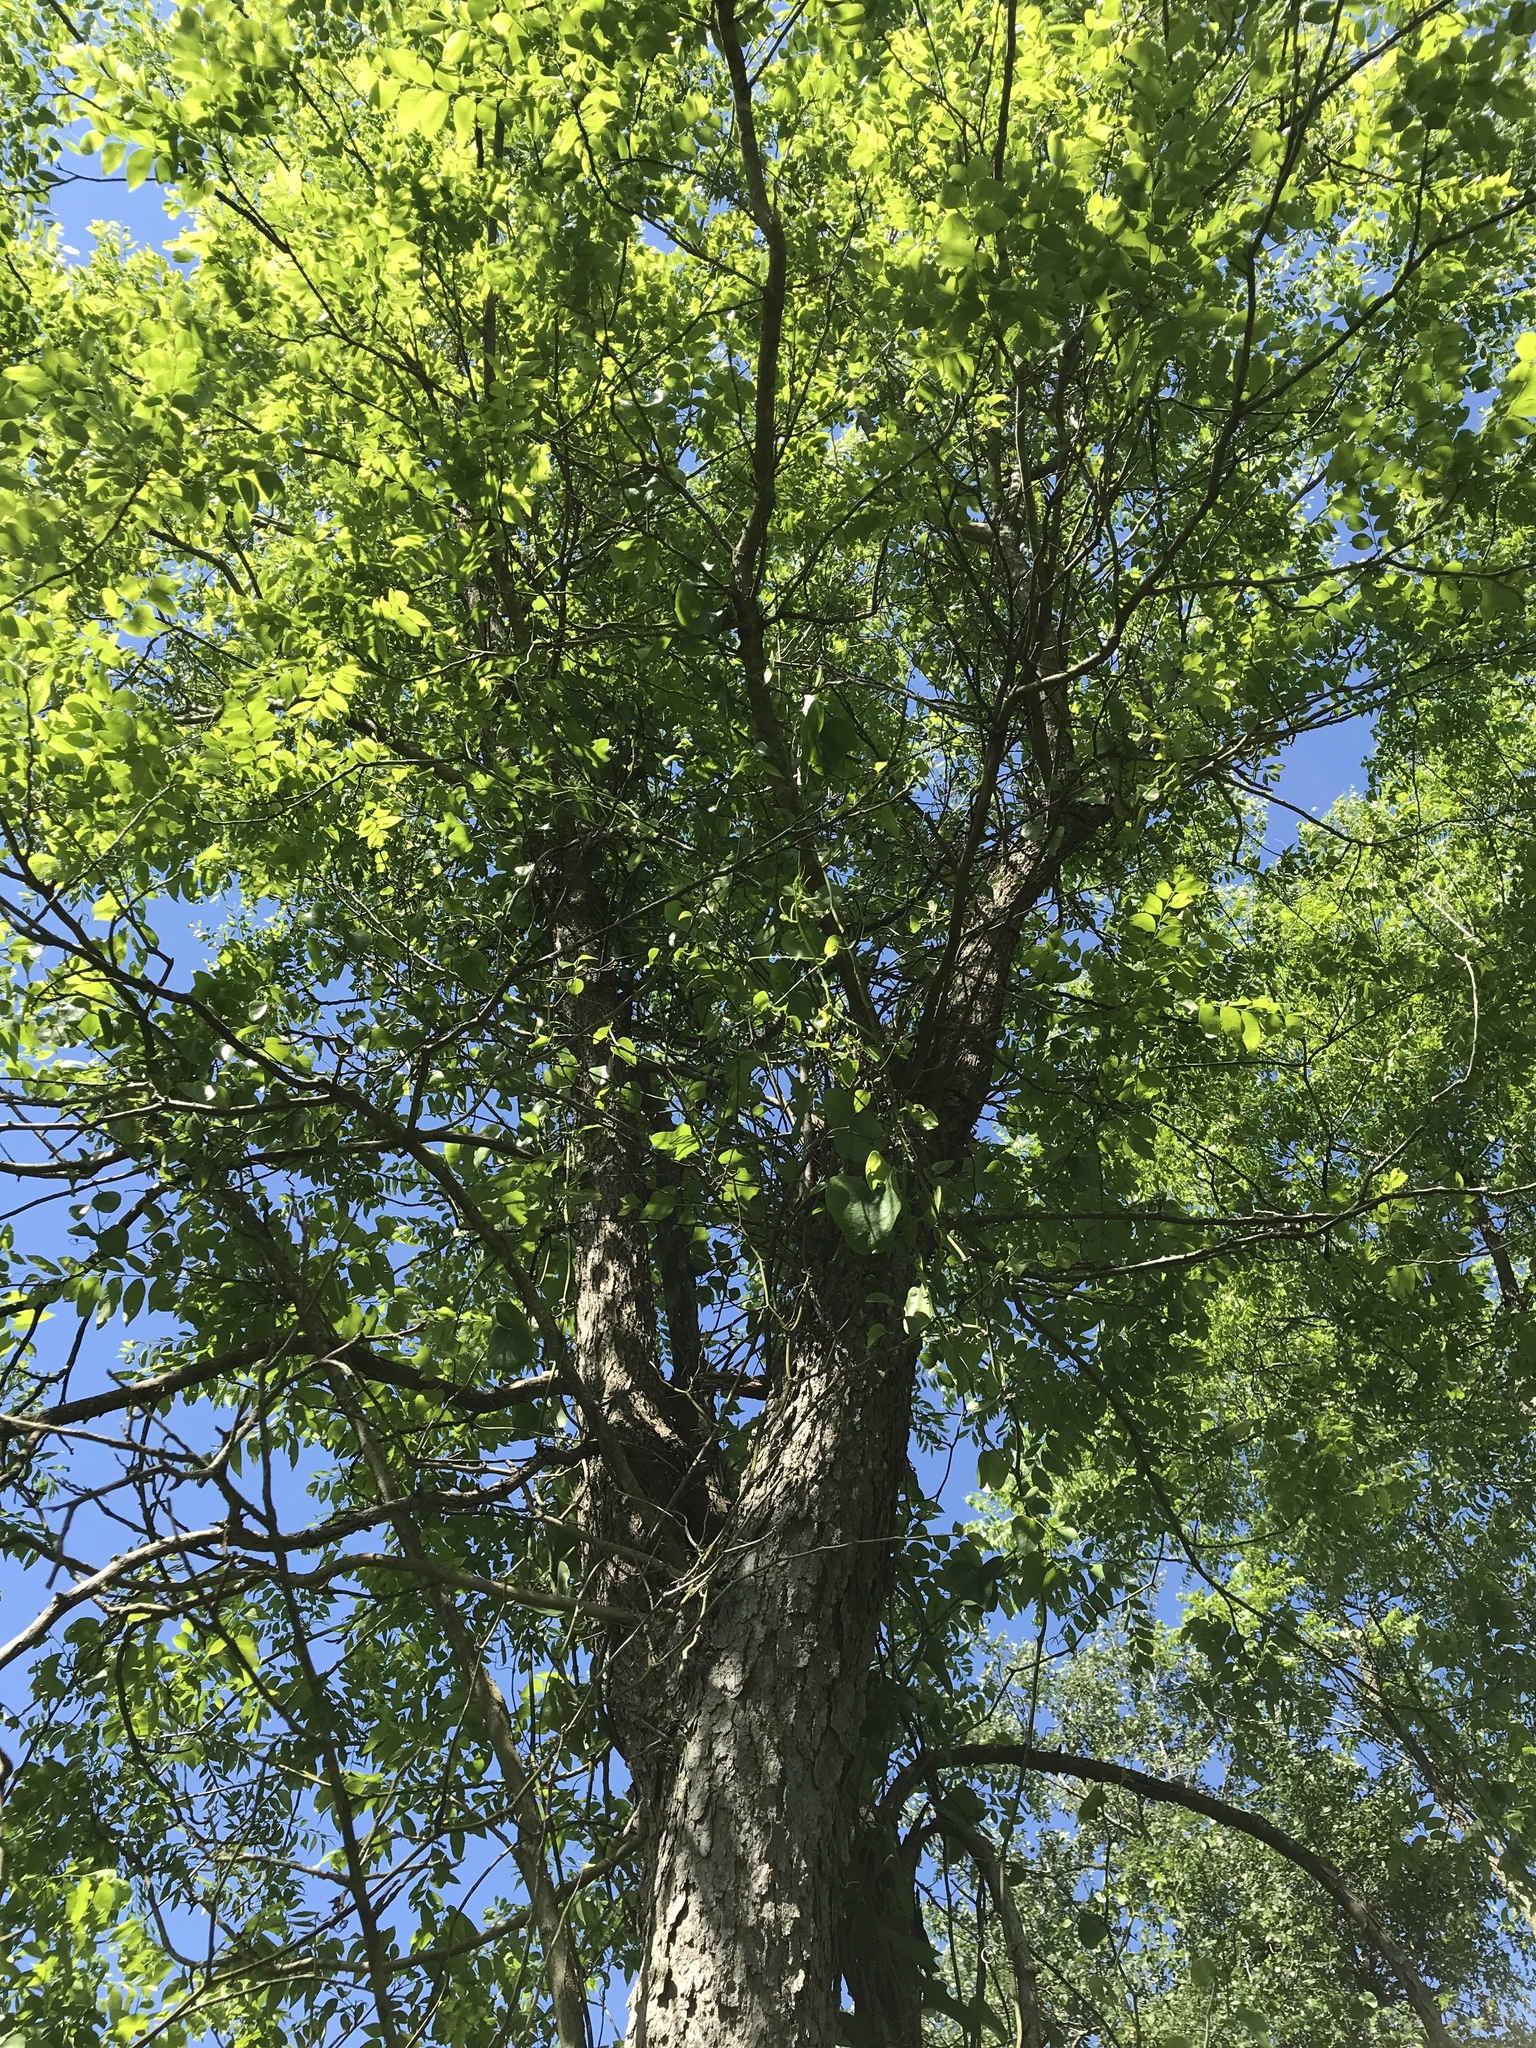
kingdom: Plantae
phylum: Tracheophyta
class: Magnoliopsida
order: Sapindales
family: Sapindaceae
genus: Sapindus
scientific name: Sapindus drummondii
